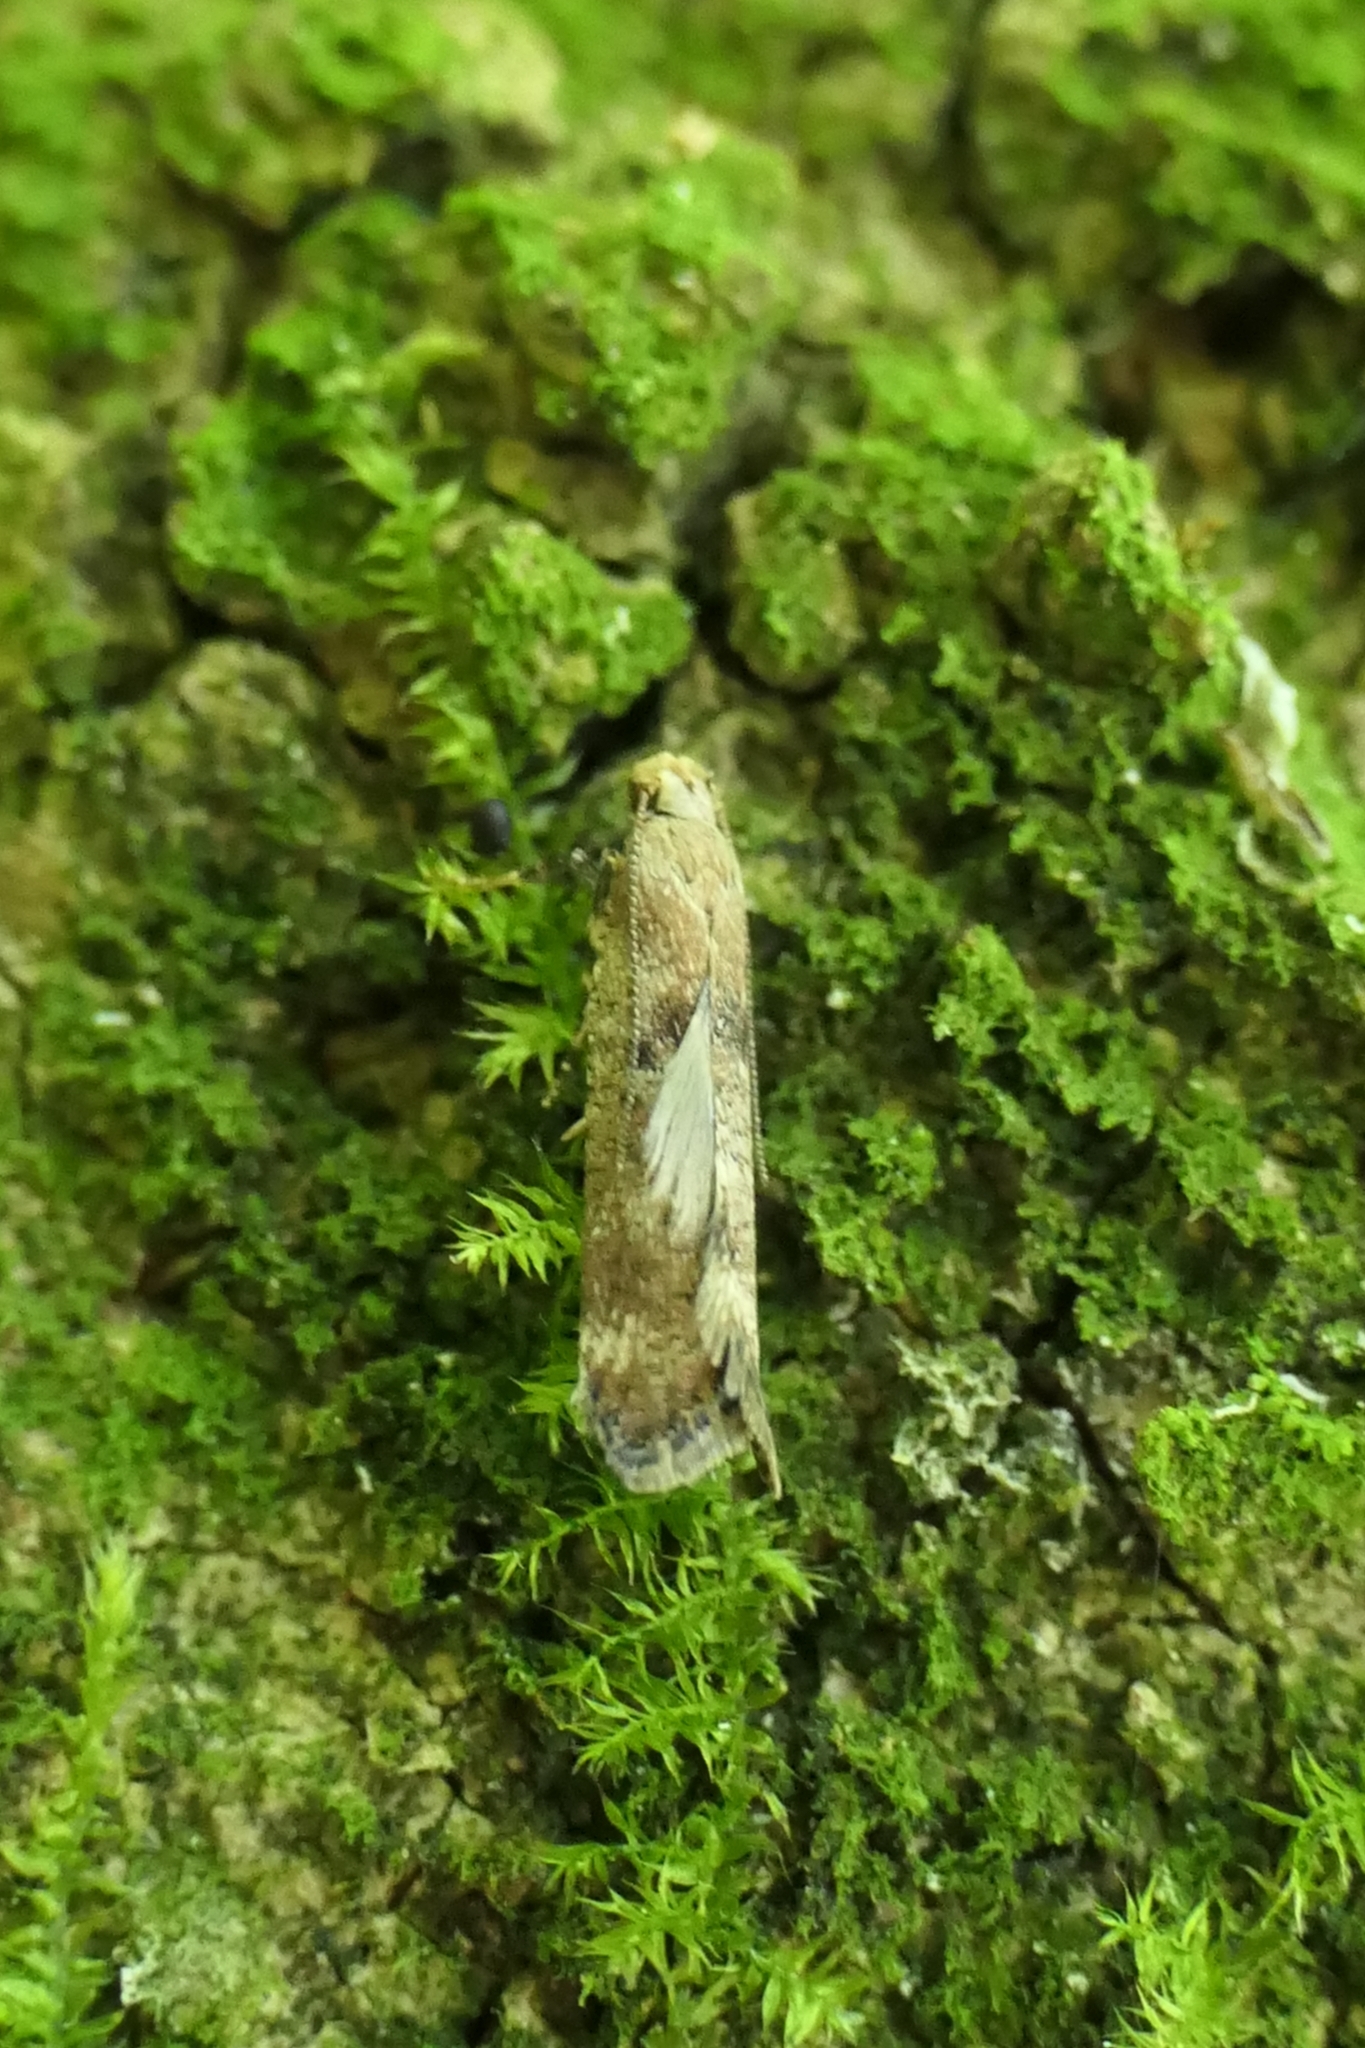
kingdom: Animalia
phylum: Arthropoda
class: Insecta
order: Lepidoptera
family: Gelechiidae
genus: Anisoplaca
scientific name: Anisoplaca acrodactyla
